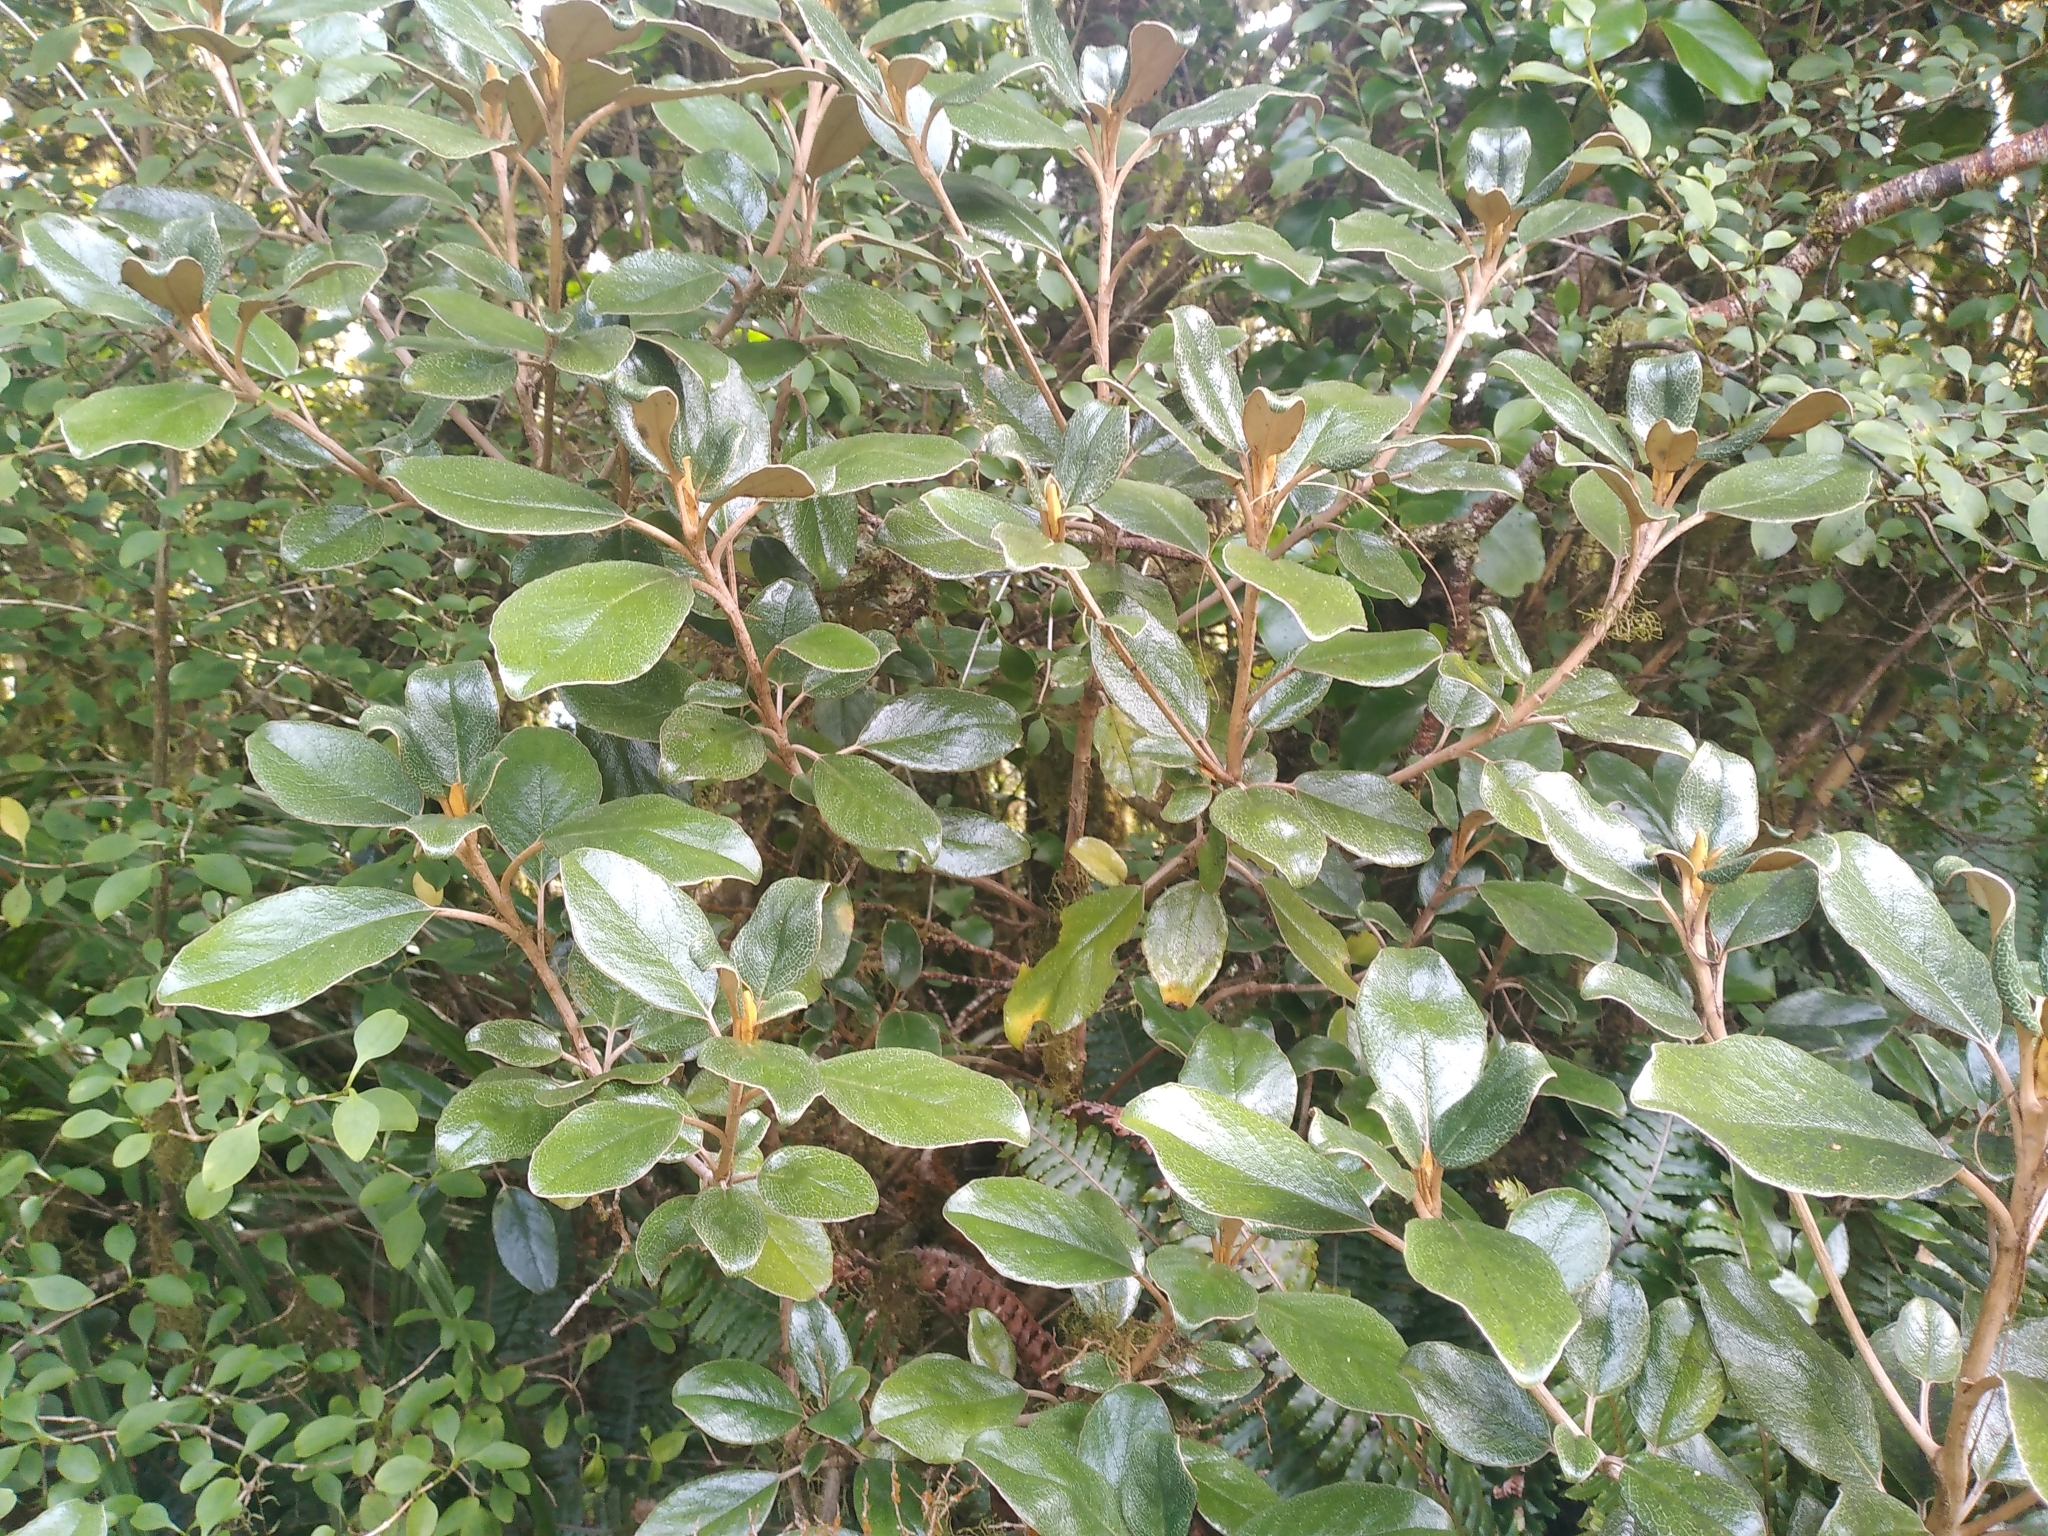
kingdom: Plantae
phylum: Tracheophyta
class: Magnoliopsida
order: Asterales
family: Asteraceae
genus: Brachyglottis
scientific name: Brachyglottis elaeagnifolia
